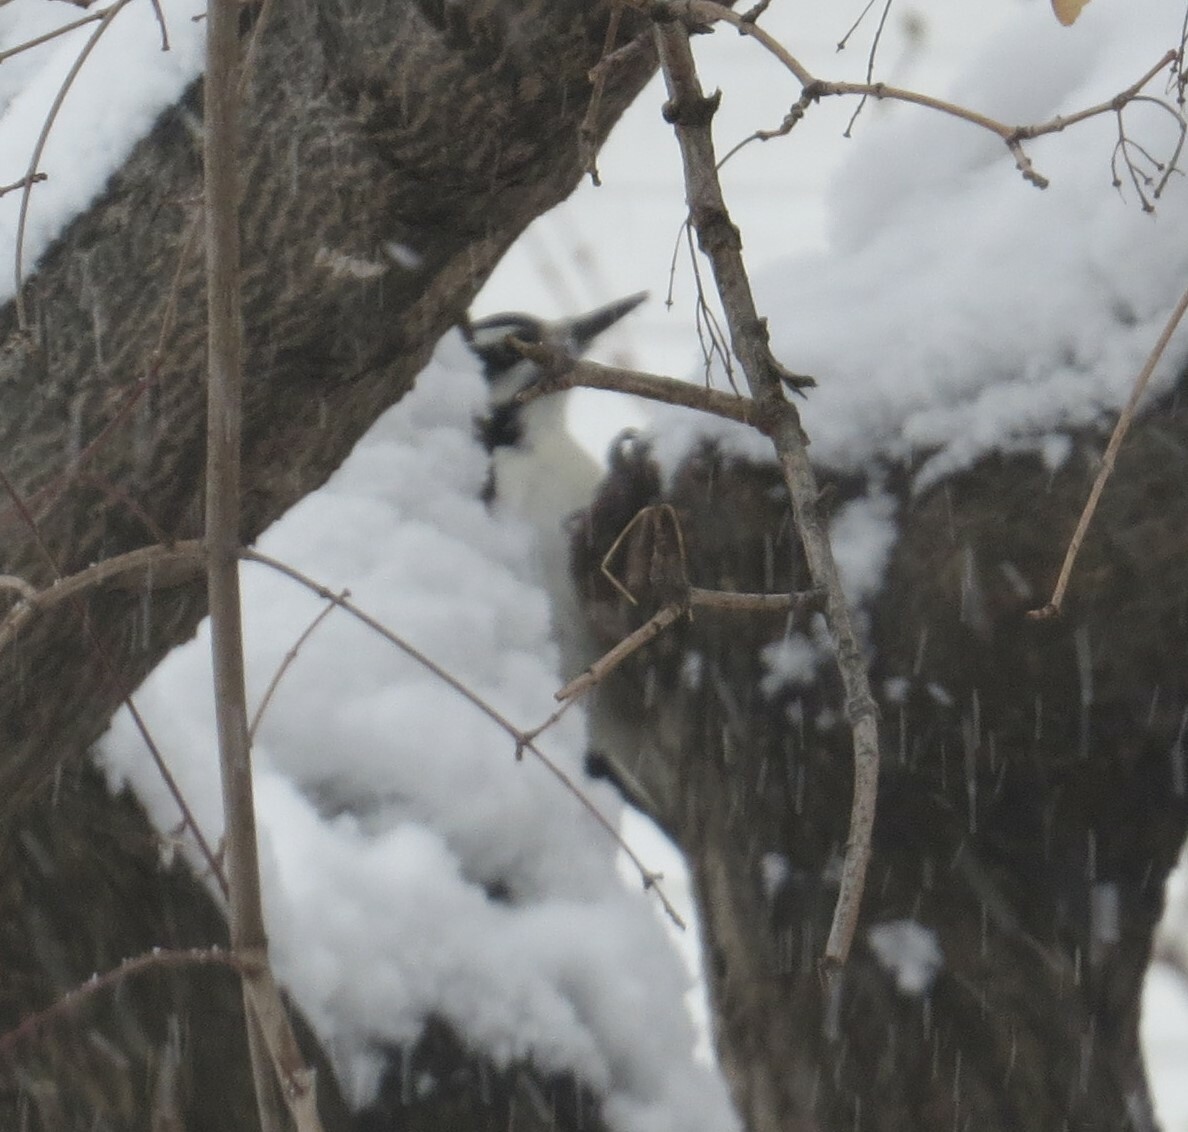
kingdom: Animalia
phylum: Chordata
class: Aves
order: Piciformes
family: Picidae
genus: Leuconotopicus
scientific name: Leuconotopicus villosus
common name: Hairy woodpecker
